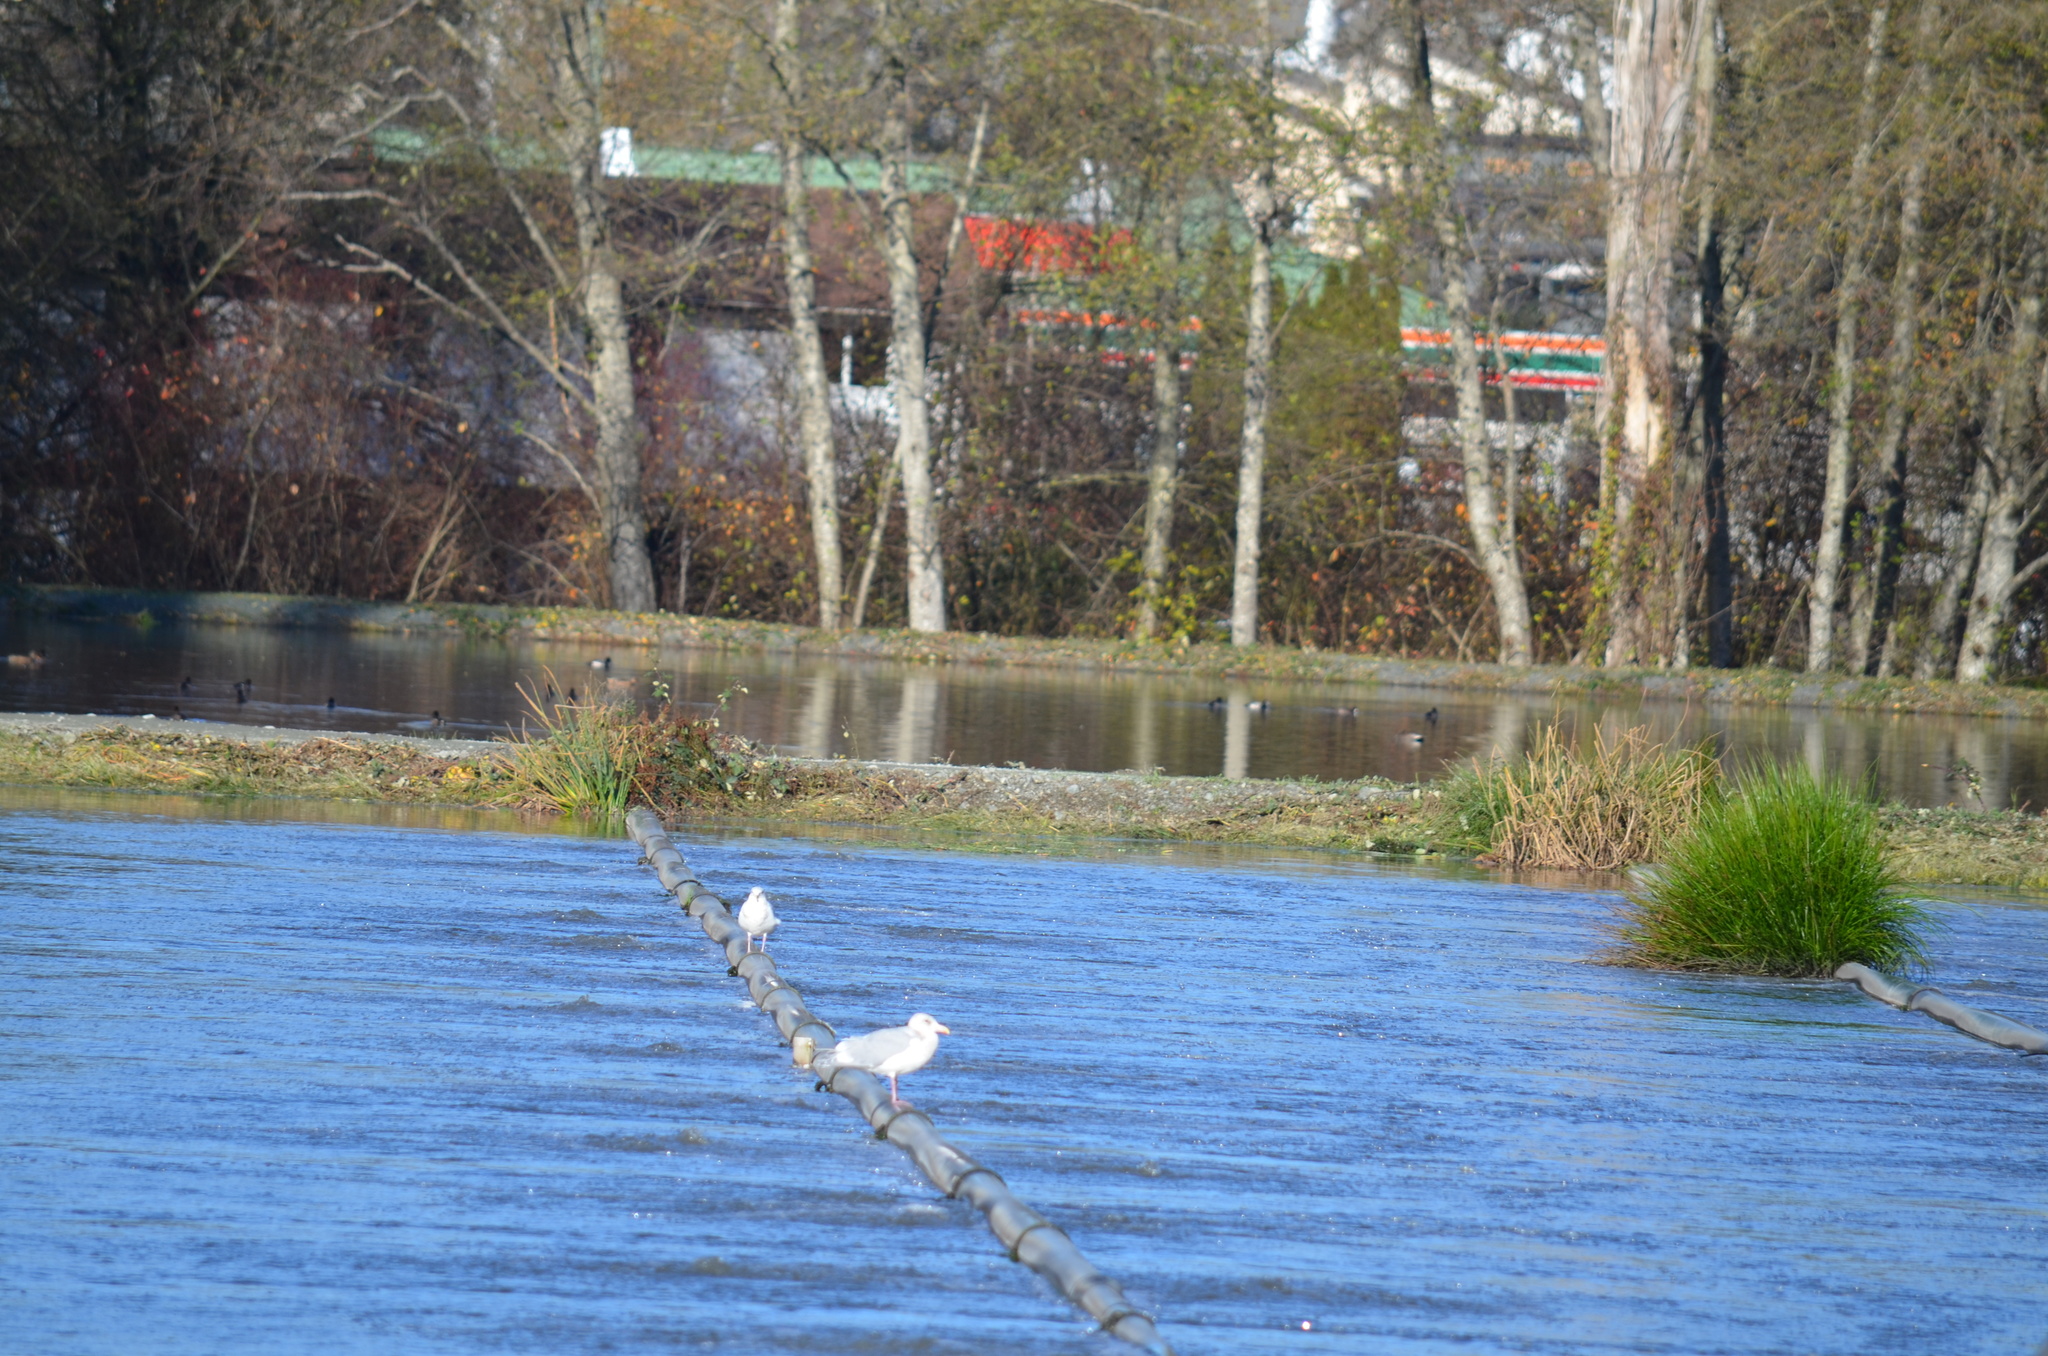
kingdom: Animalia
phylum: Chordata
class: Aves
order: Anseriformes
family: Anatidae
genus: Mareca
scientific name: Mareca strepera
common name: Gadwall
